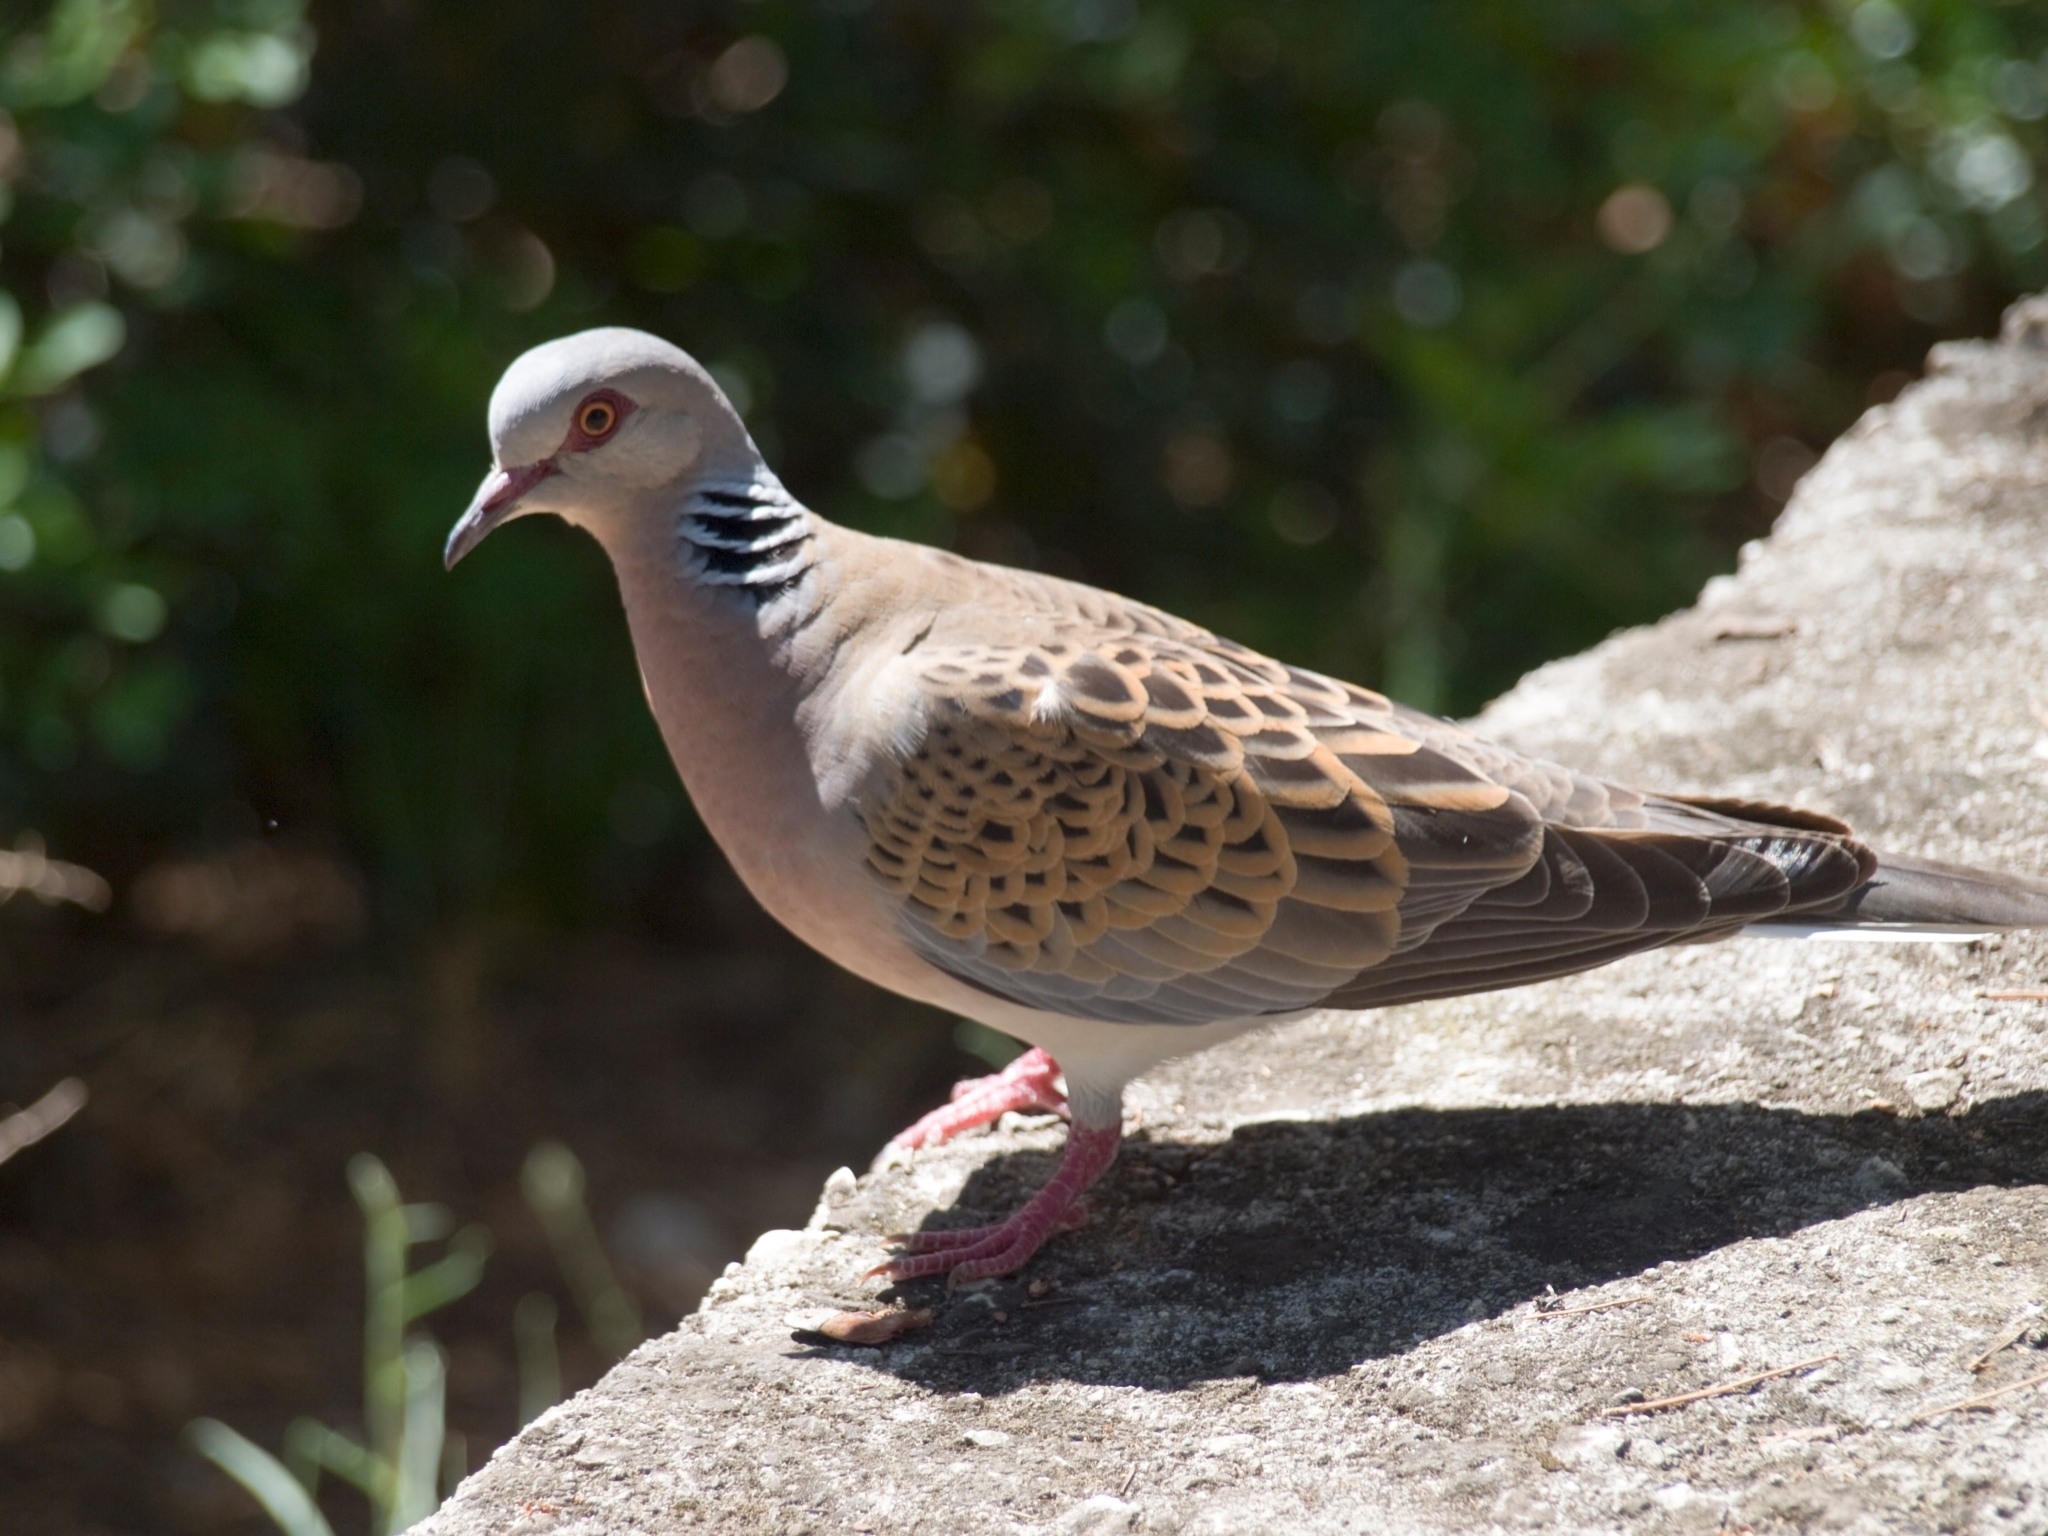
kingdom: Animalia
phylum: Chordata
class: Aves
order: Columbiformes
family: Columbidae
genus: Streptopelia
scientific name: Streptopelia turtur
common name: European turtle dove
